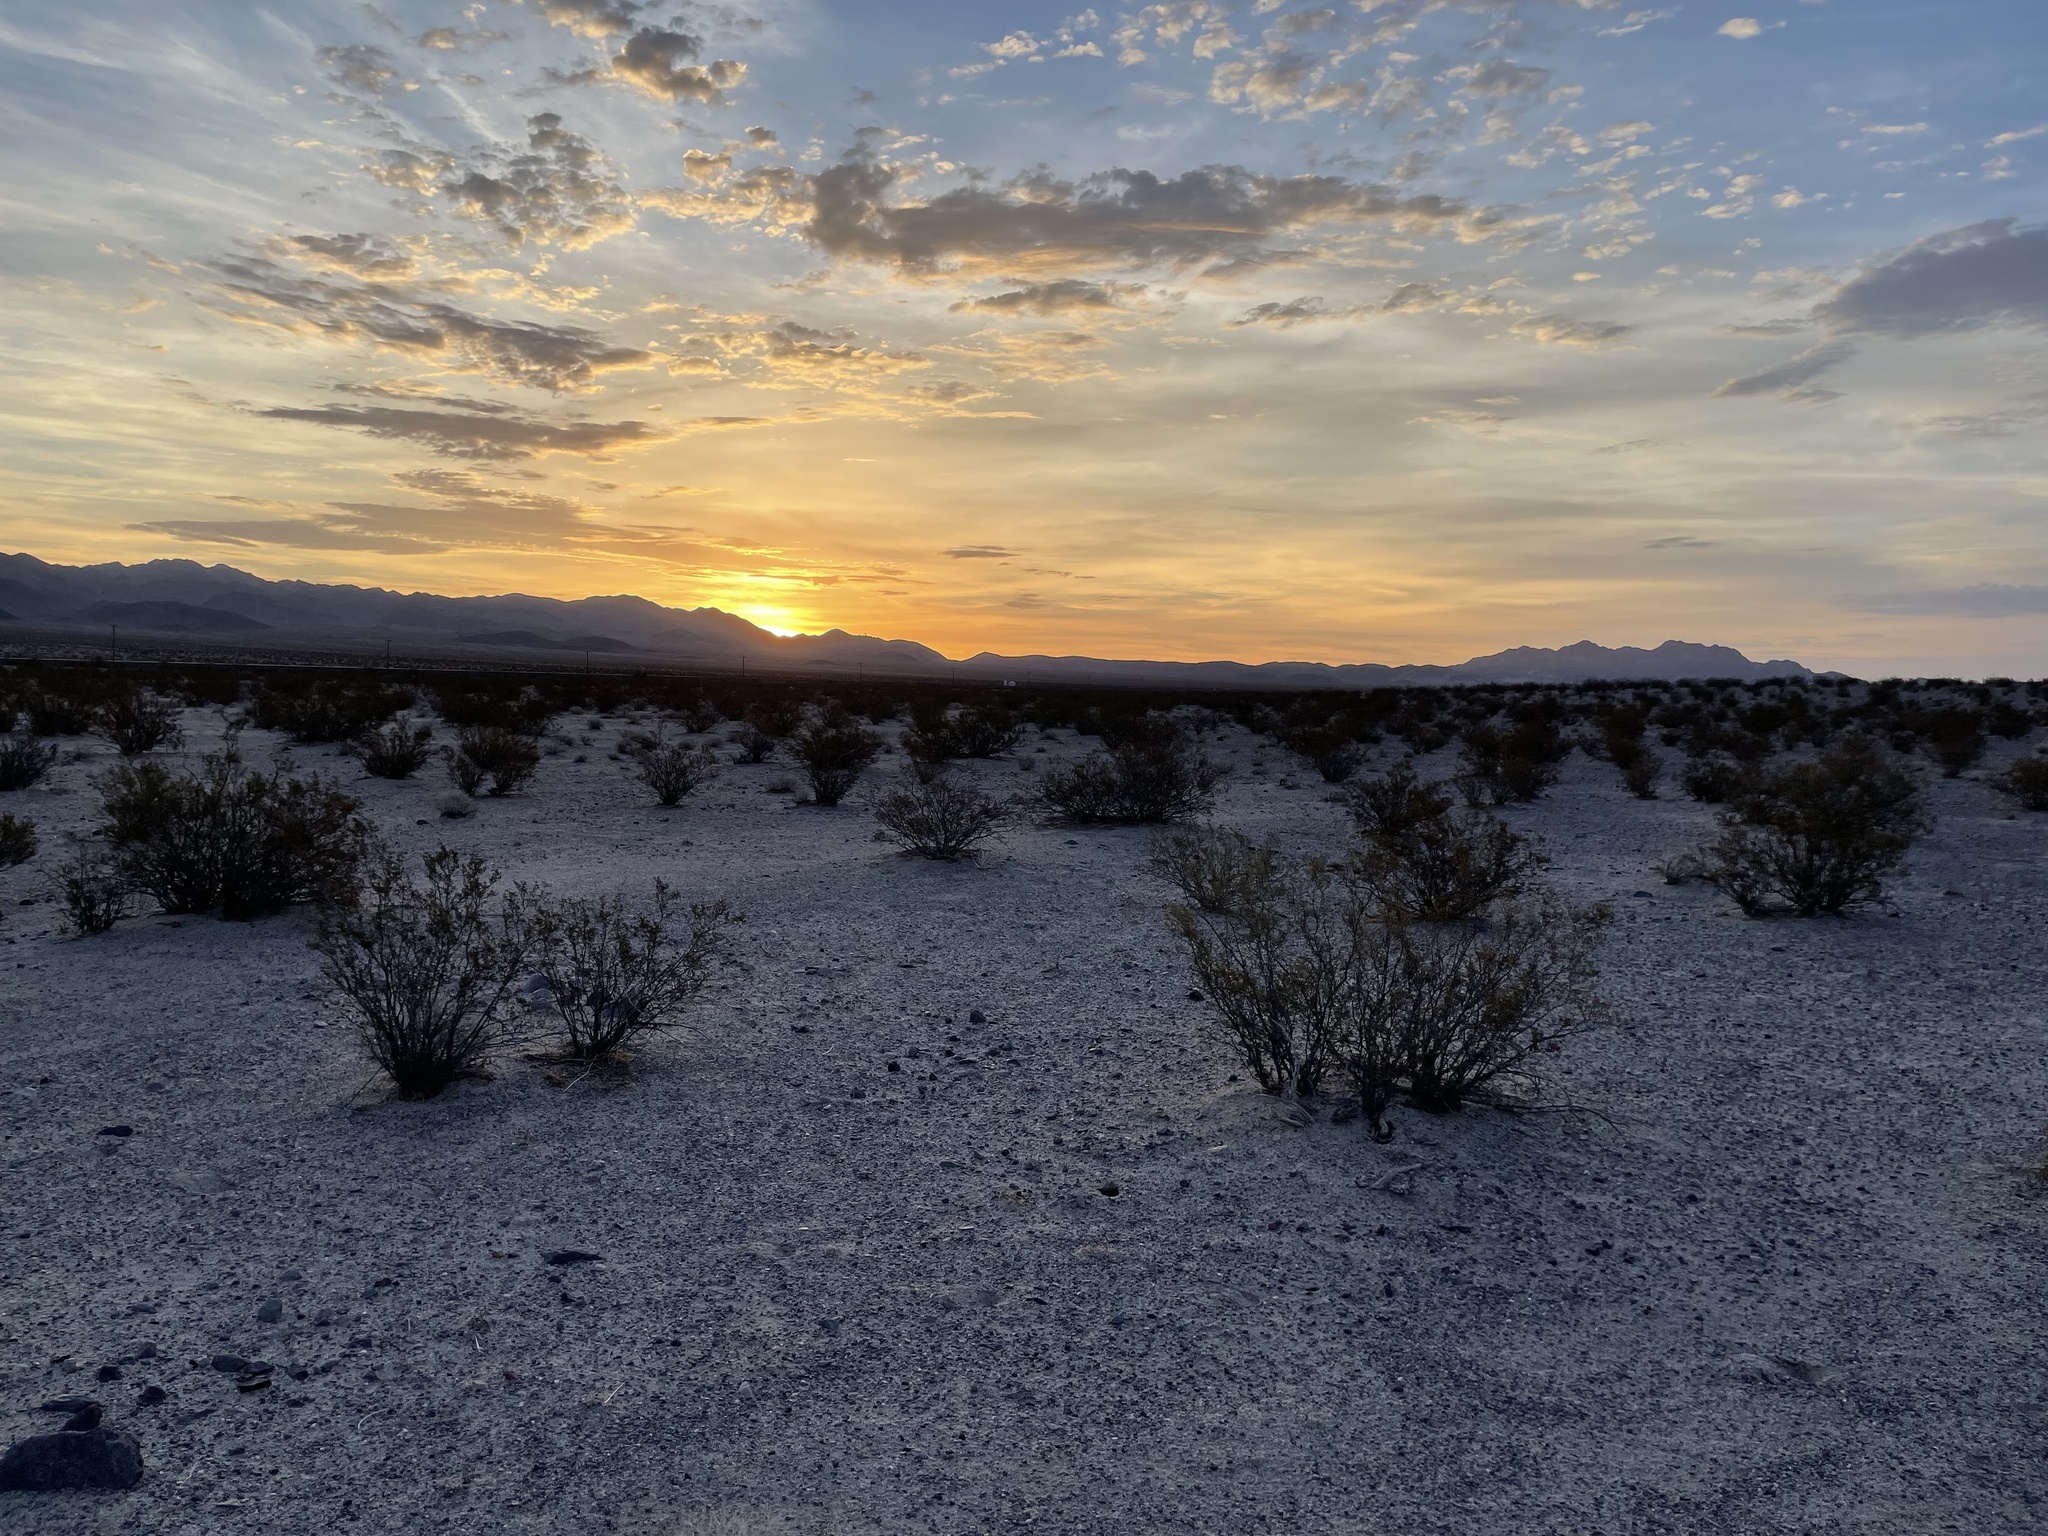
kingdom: Plantae
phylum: Tracheophyta
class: Magnoliopsida
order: Zygophyllales
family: Zygophyllaceae
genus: Larrea
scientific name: Larrea tridentata
